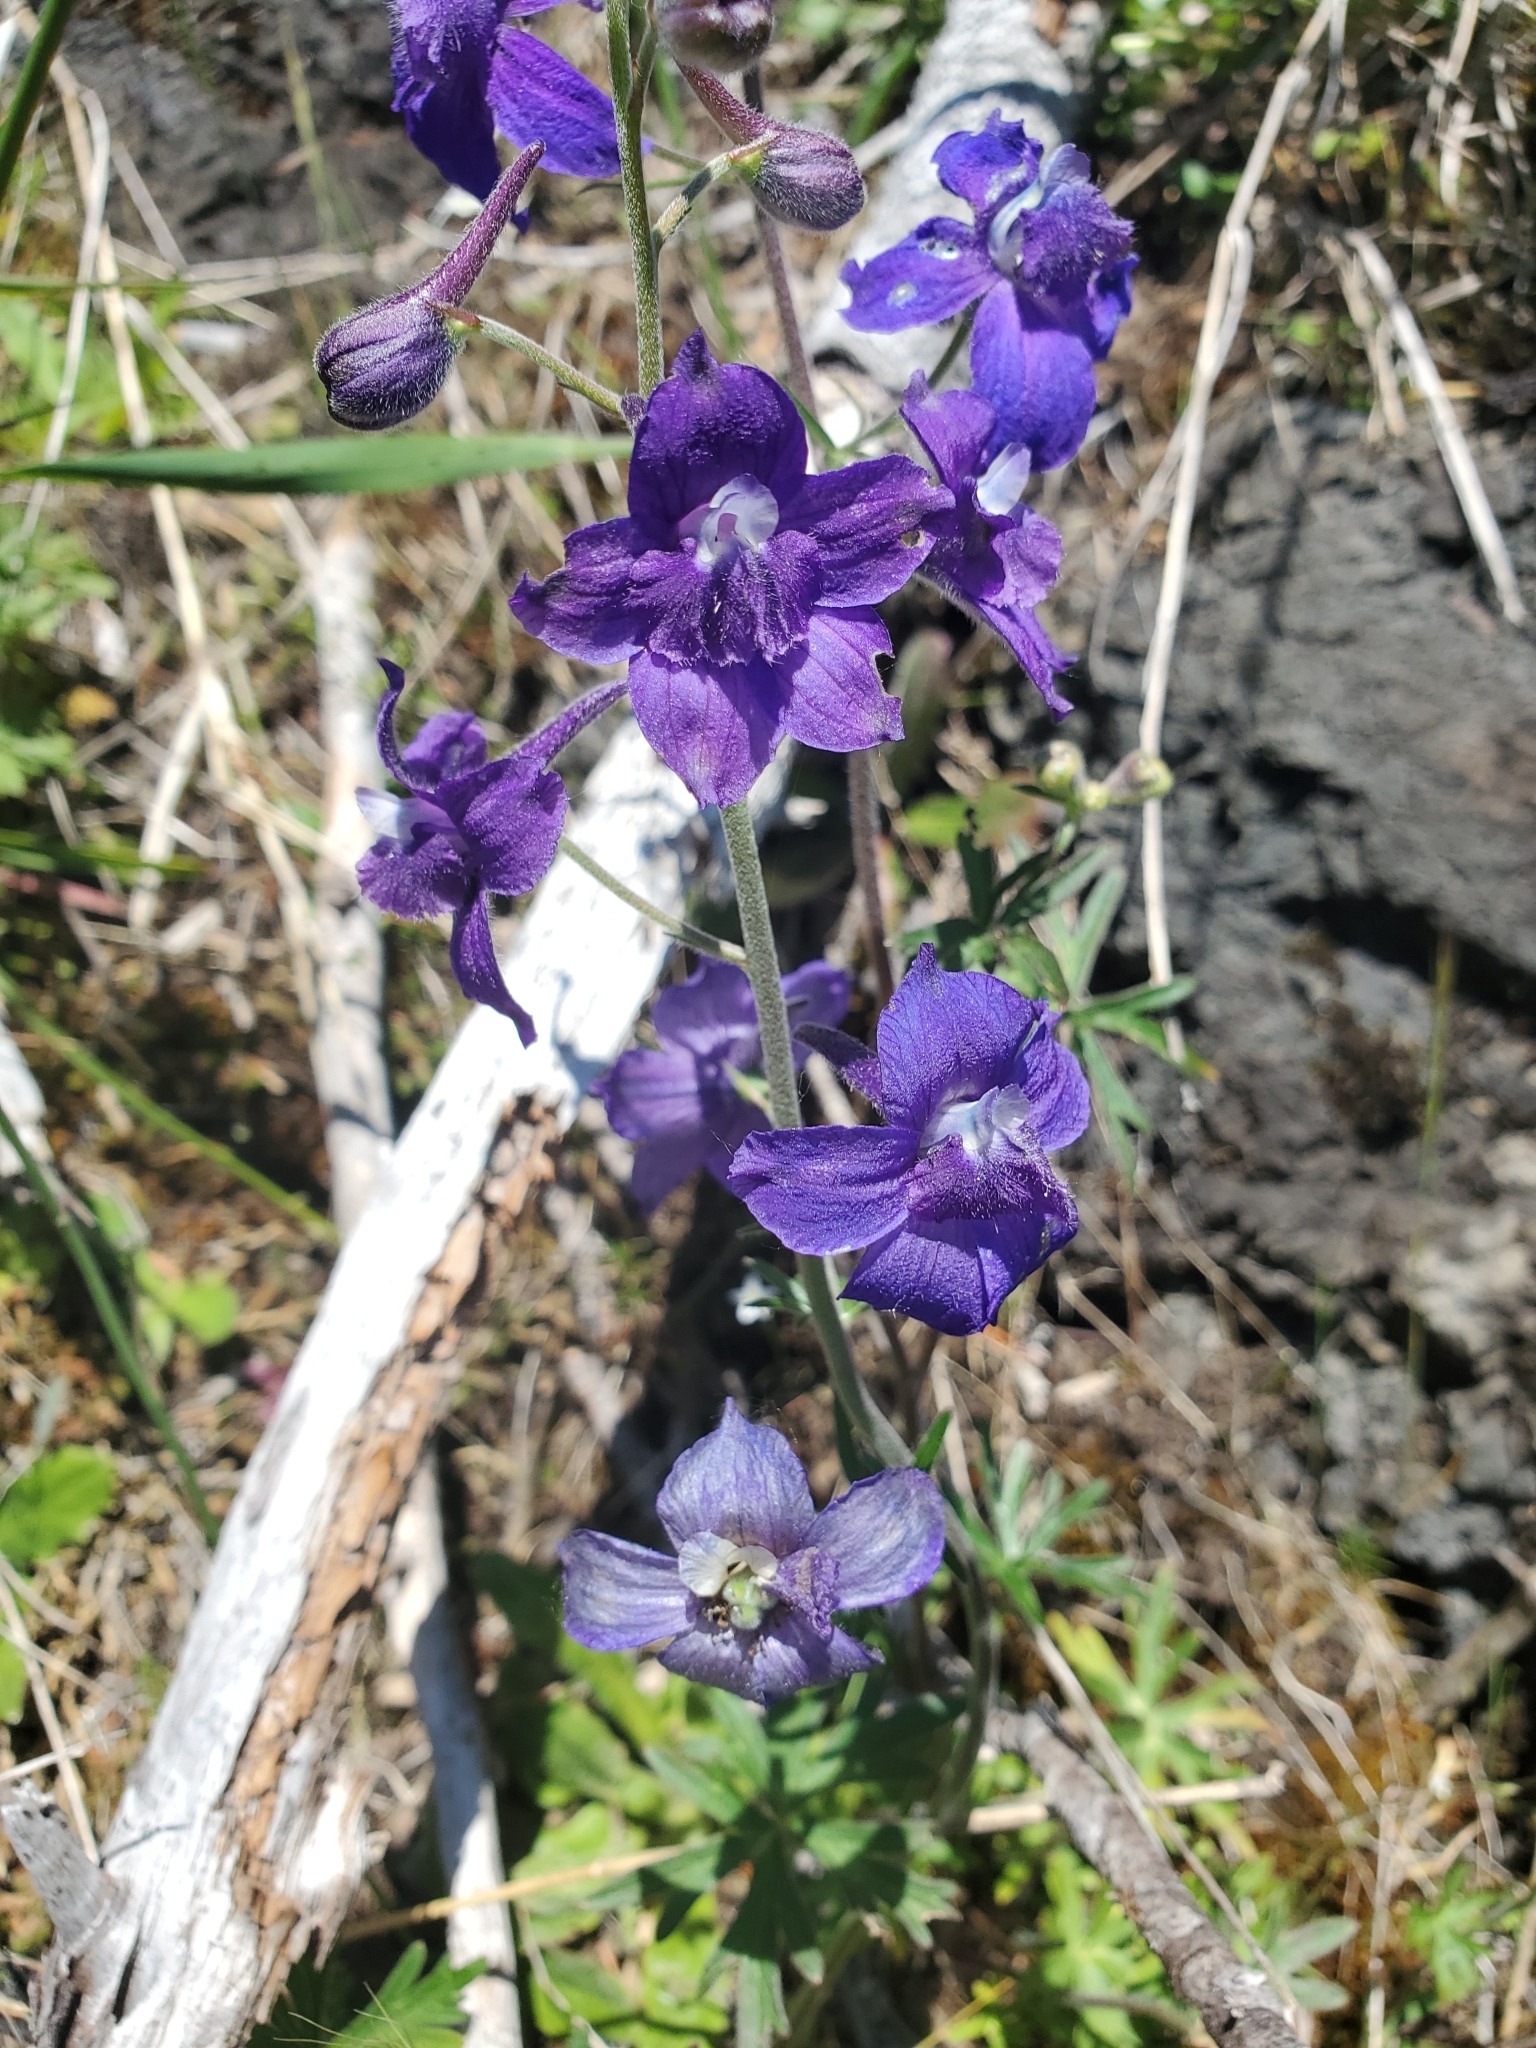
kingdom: Plantae
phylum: Tracheophyta
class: Magnoliopsida
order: Ranunculales
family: Ranunculaceae
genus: Delphinium
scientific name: Delphinium menziesii
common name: Menzies's larkspur
